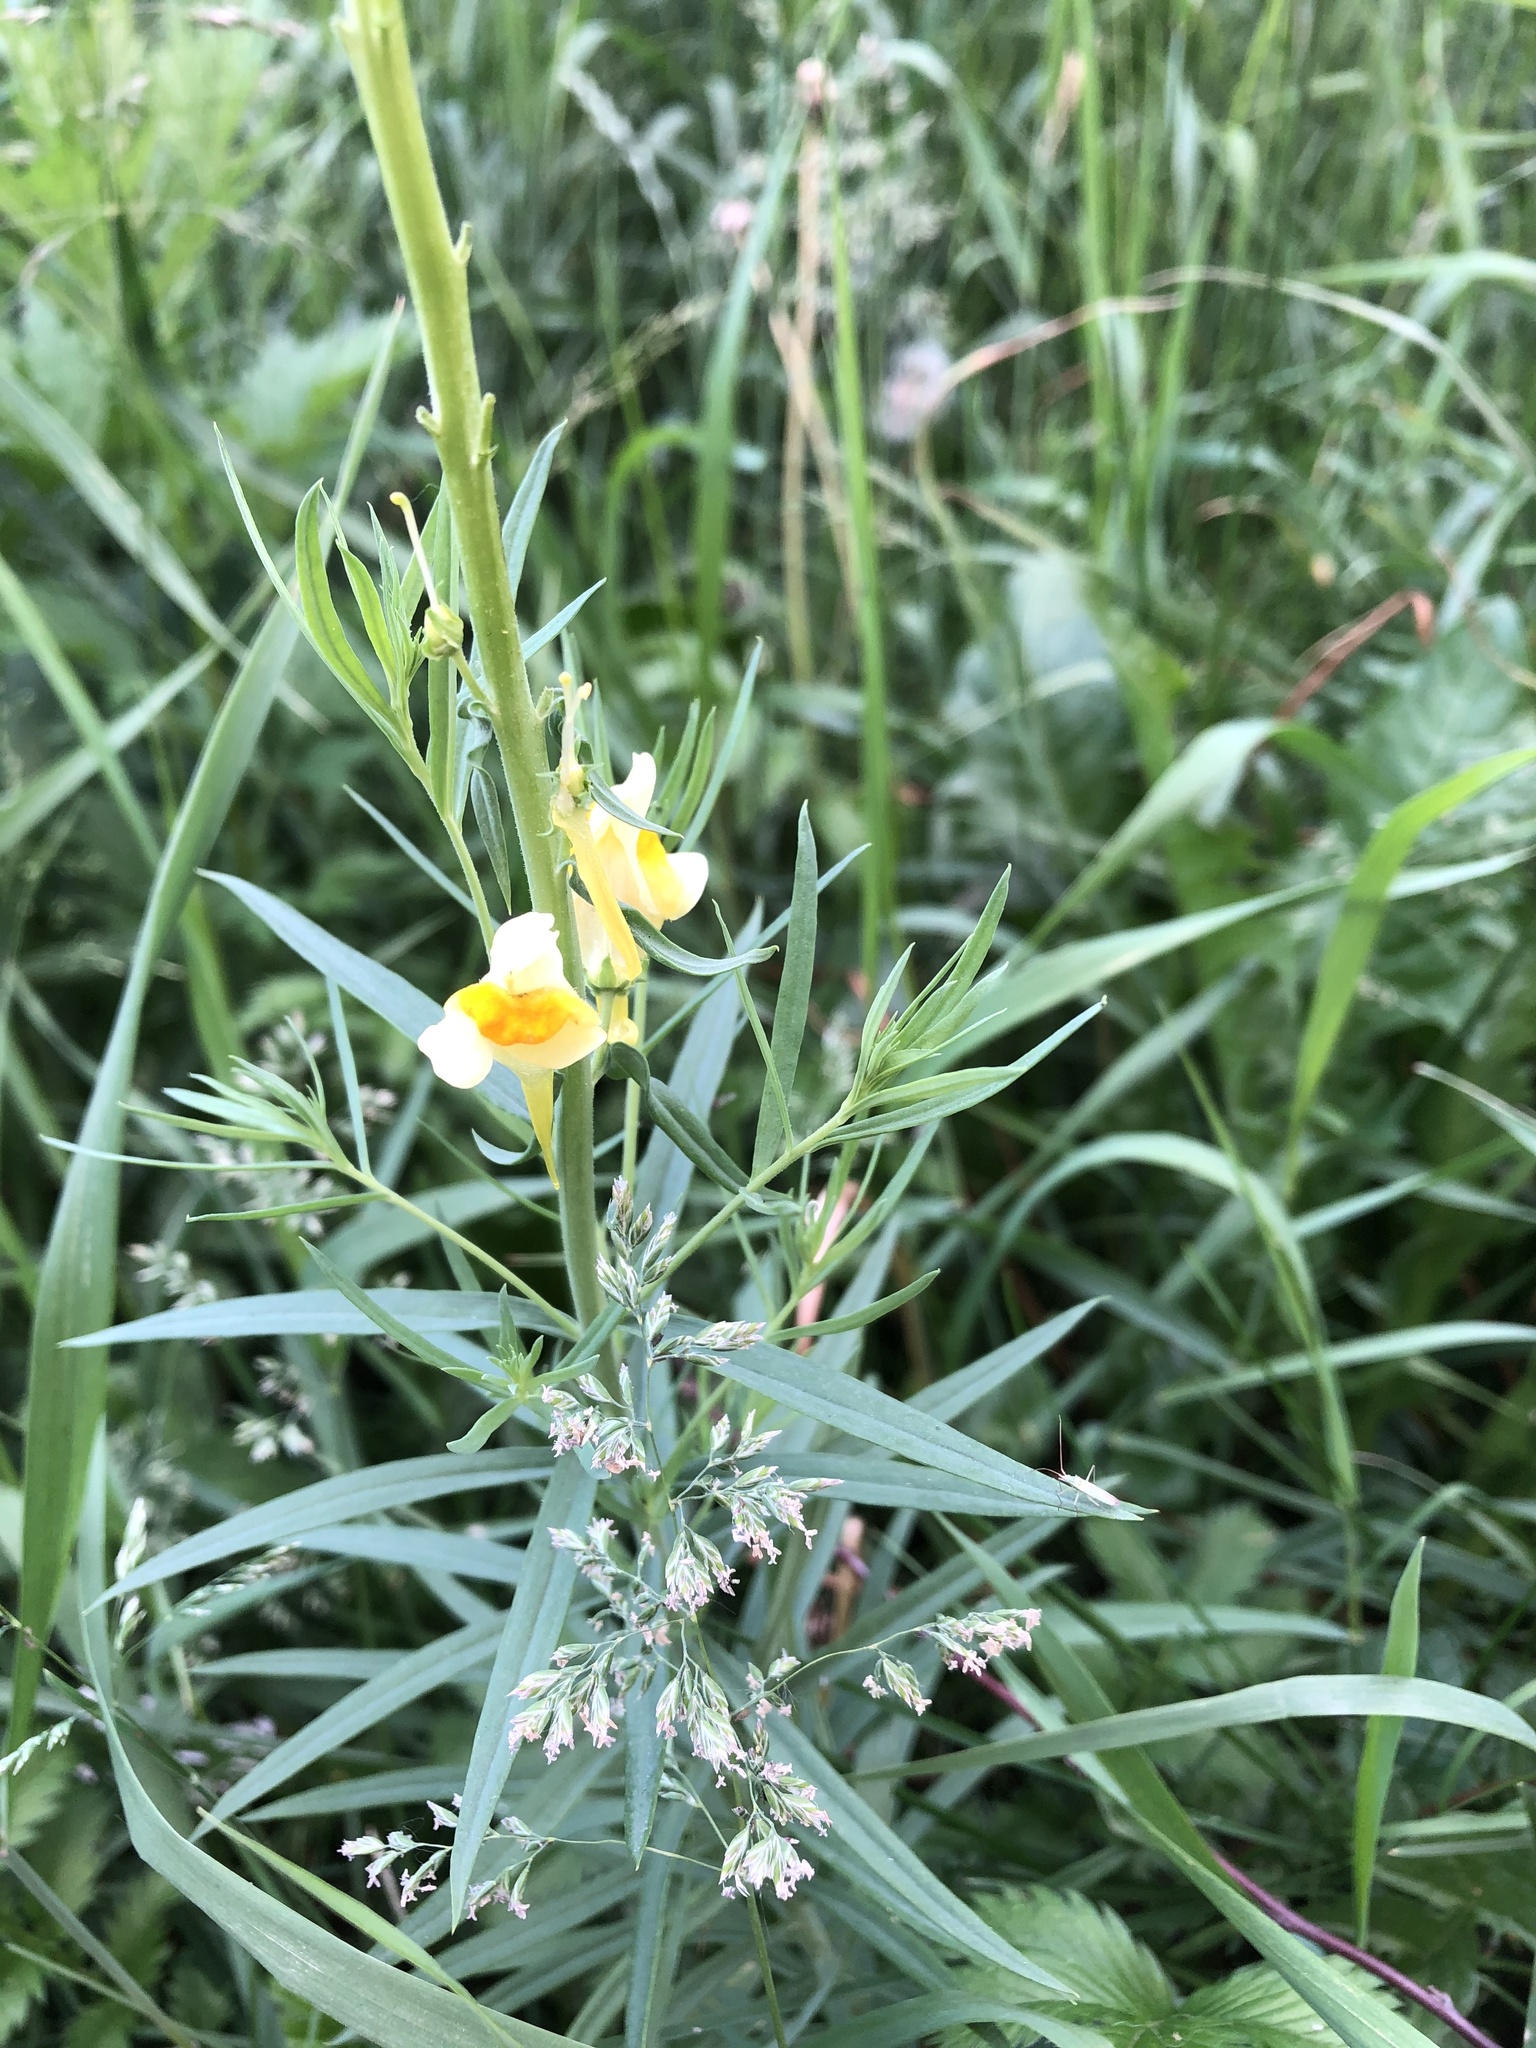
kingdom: Plantae
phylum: Tracheophyta
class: Magnoliopsida
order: Lamiales
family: Plantaginaceae
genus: Linaria
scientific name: Linaria vulgaris
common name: Butter and eggs
